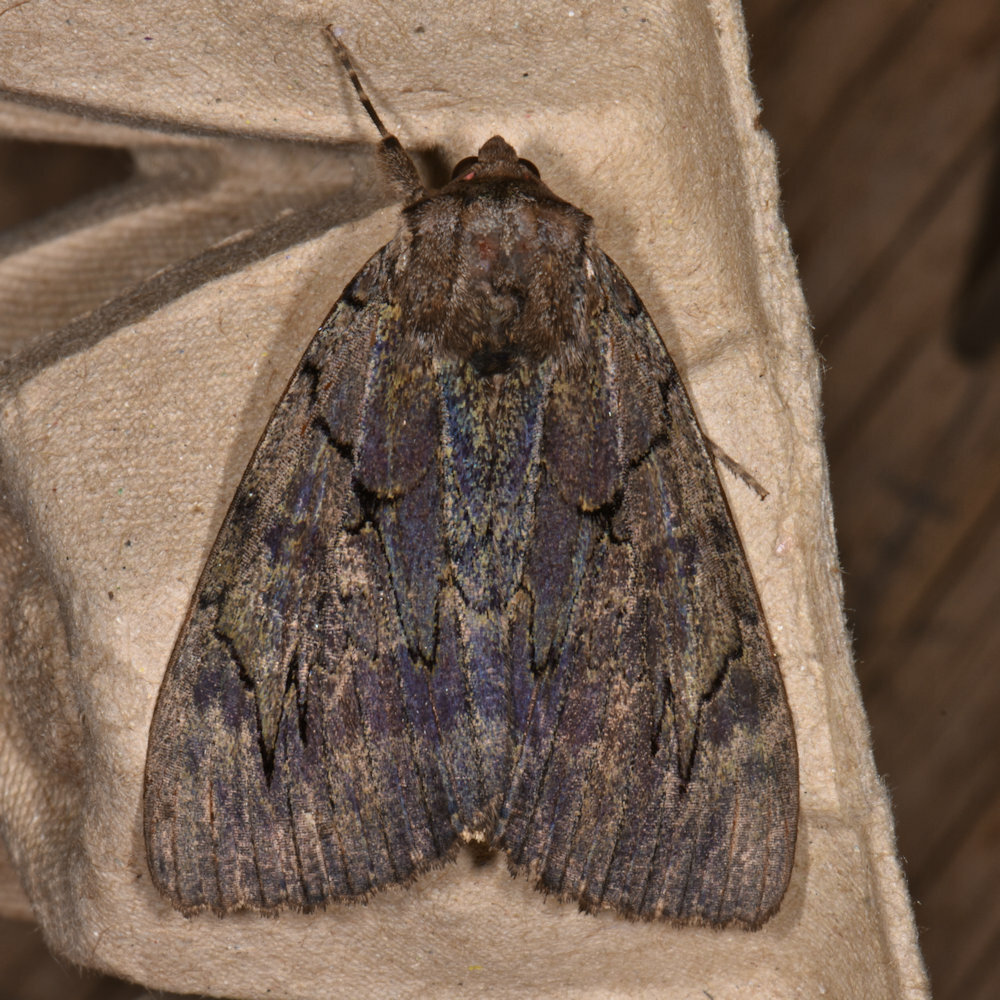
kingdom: Animalia
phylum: Arthropoda
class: Insecta
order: Lepidoptera
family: Erebidae
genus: Catocala
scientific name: Catocala cara
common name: Darling underwing
